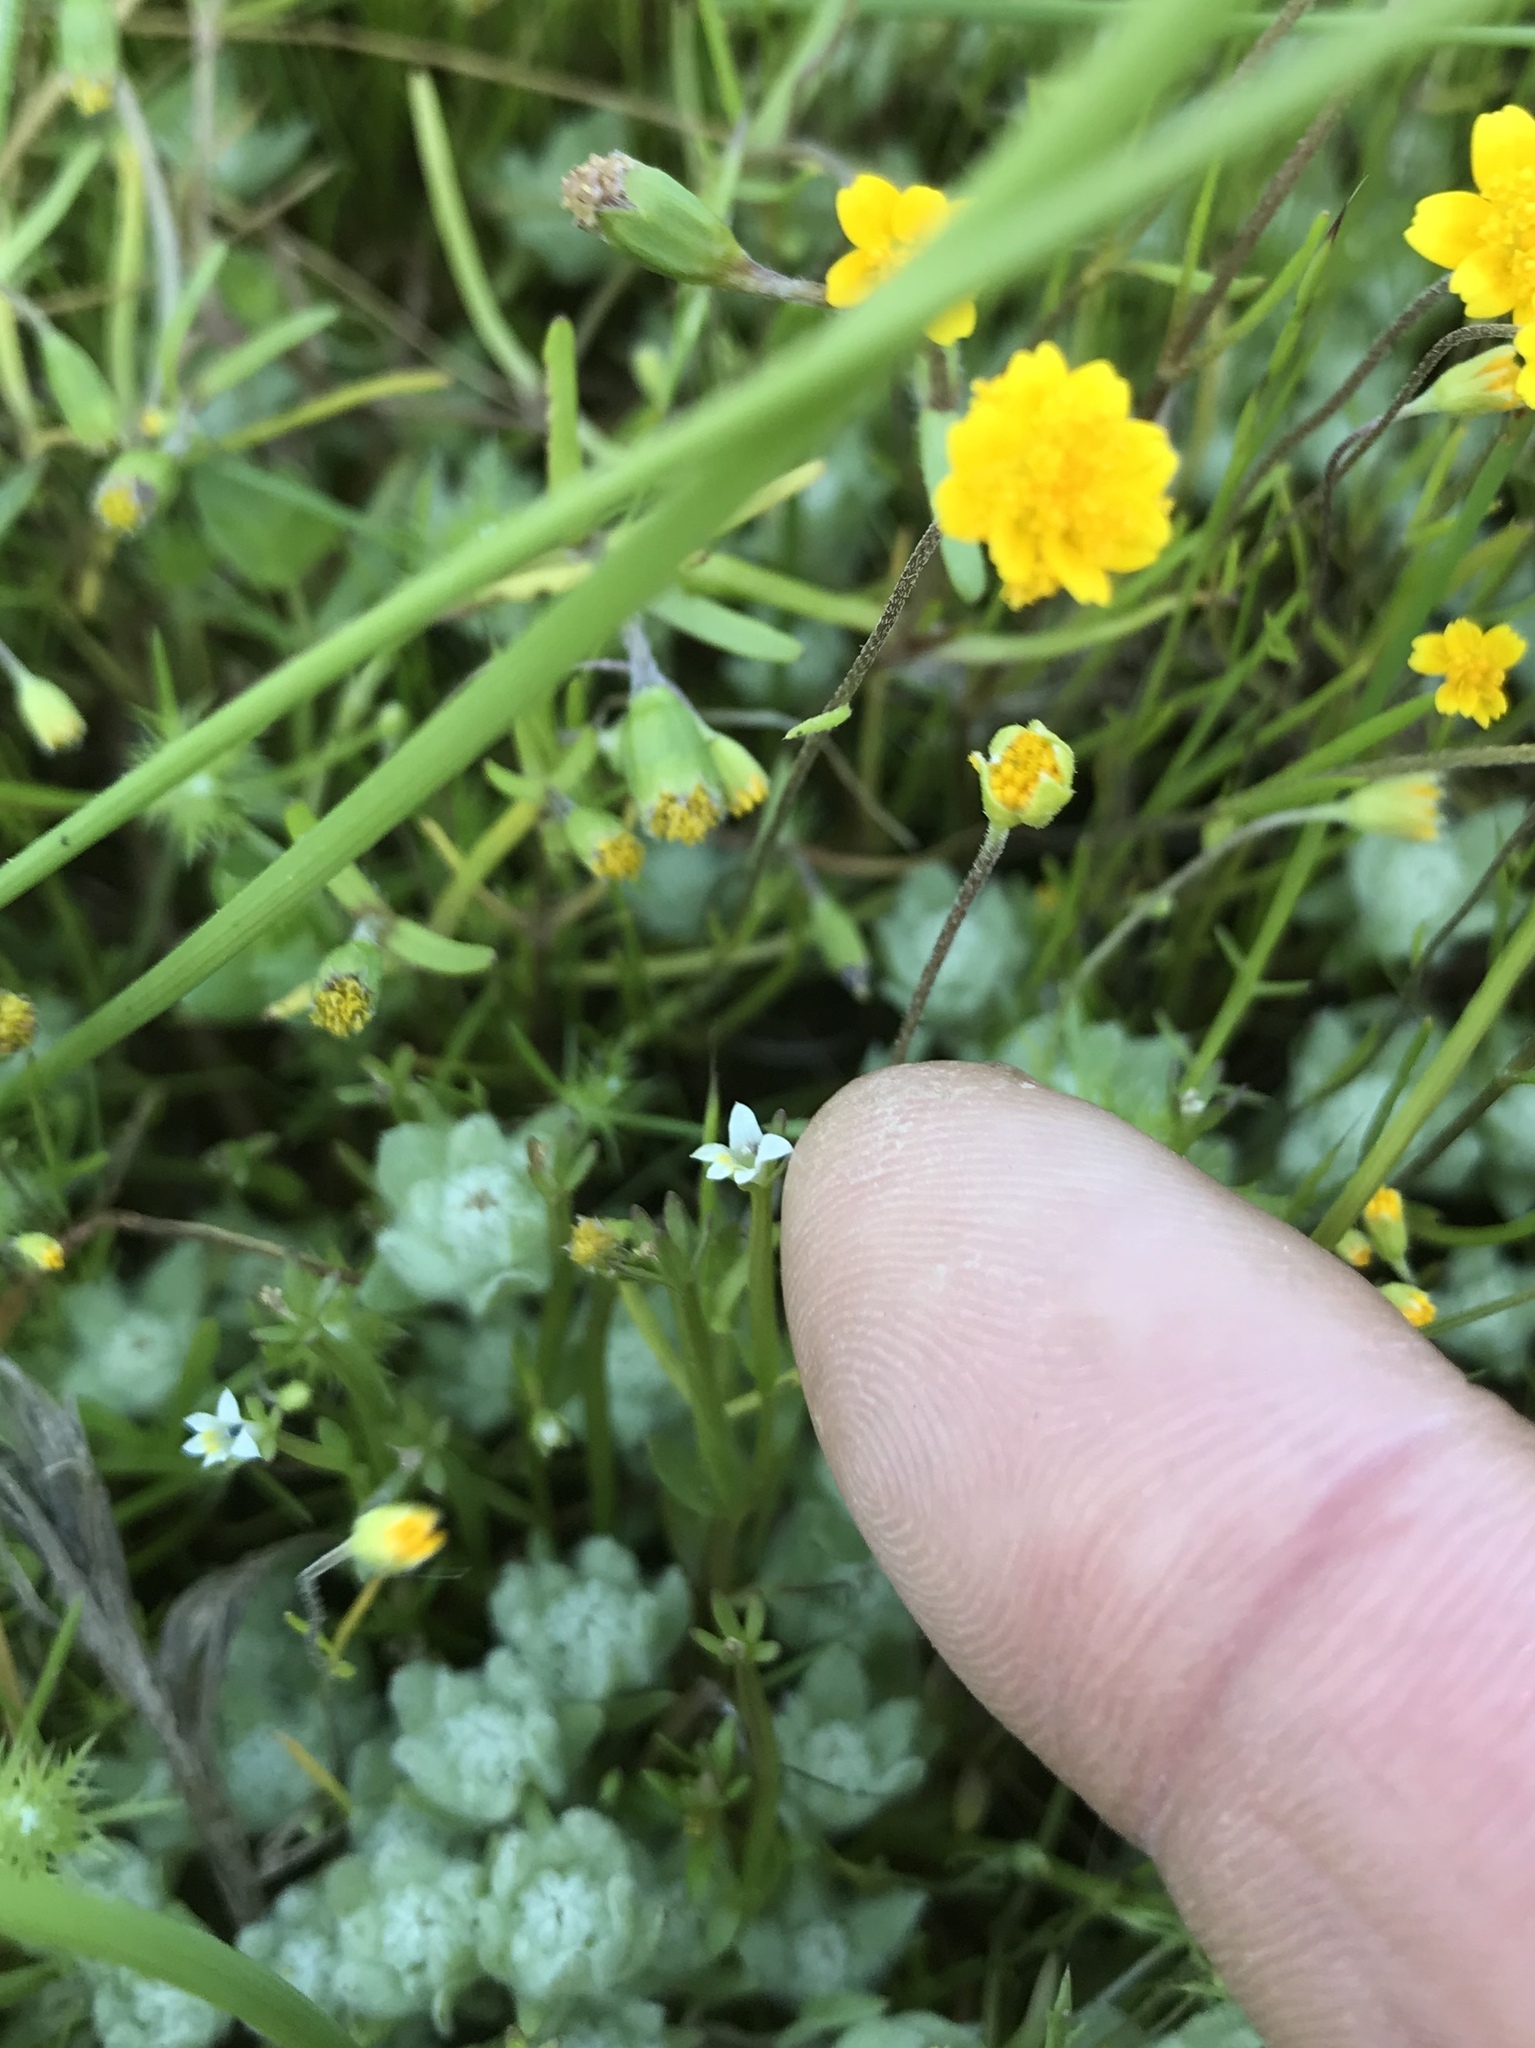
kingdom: Plantae
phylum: Tracheophyta
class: Magnoliopsida
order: Asterales
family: Campanulaceae
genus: Downingia
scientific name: Downingia pusilla
